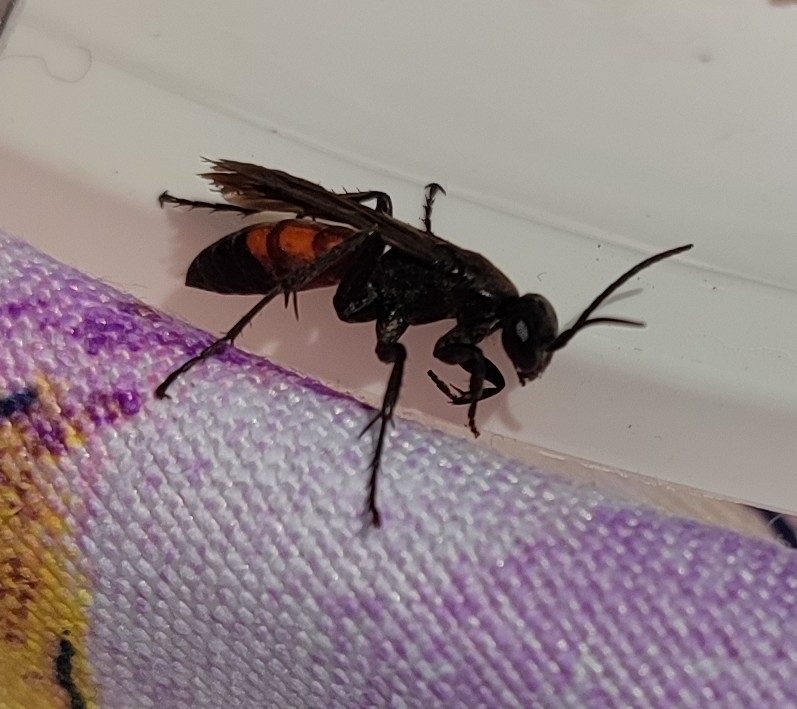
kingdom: Animalia
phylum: Arthropoda
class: Insecta
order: Hymenoptera
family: Pompilidae
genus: Anoplius
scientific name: Anoplius viaticus
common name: Black banded spider wasp
